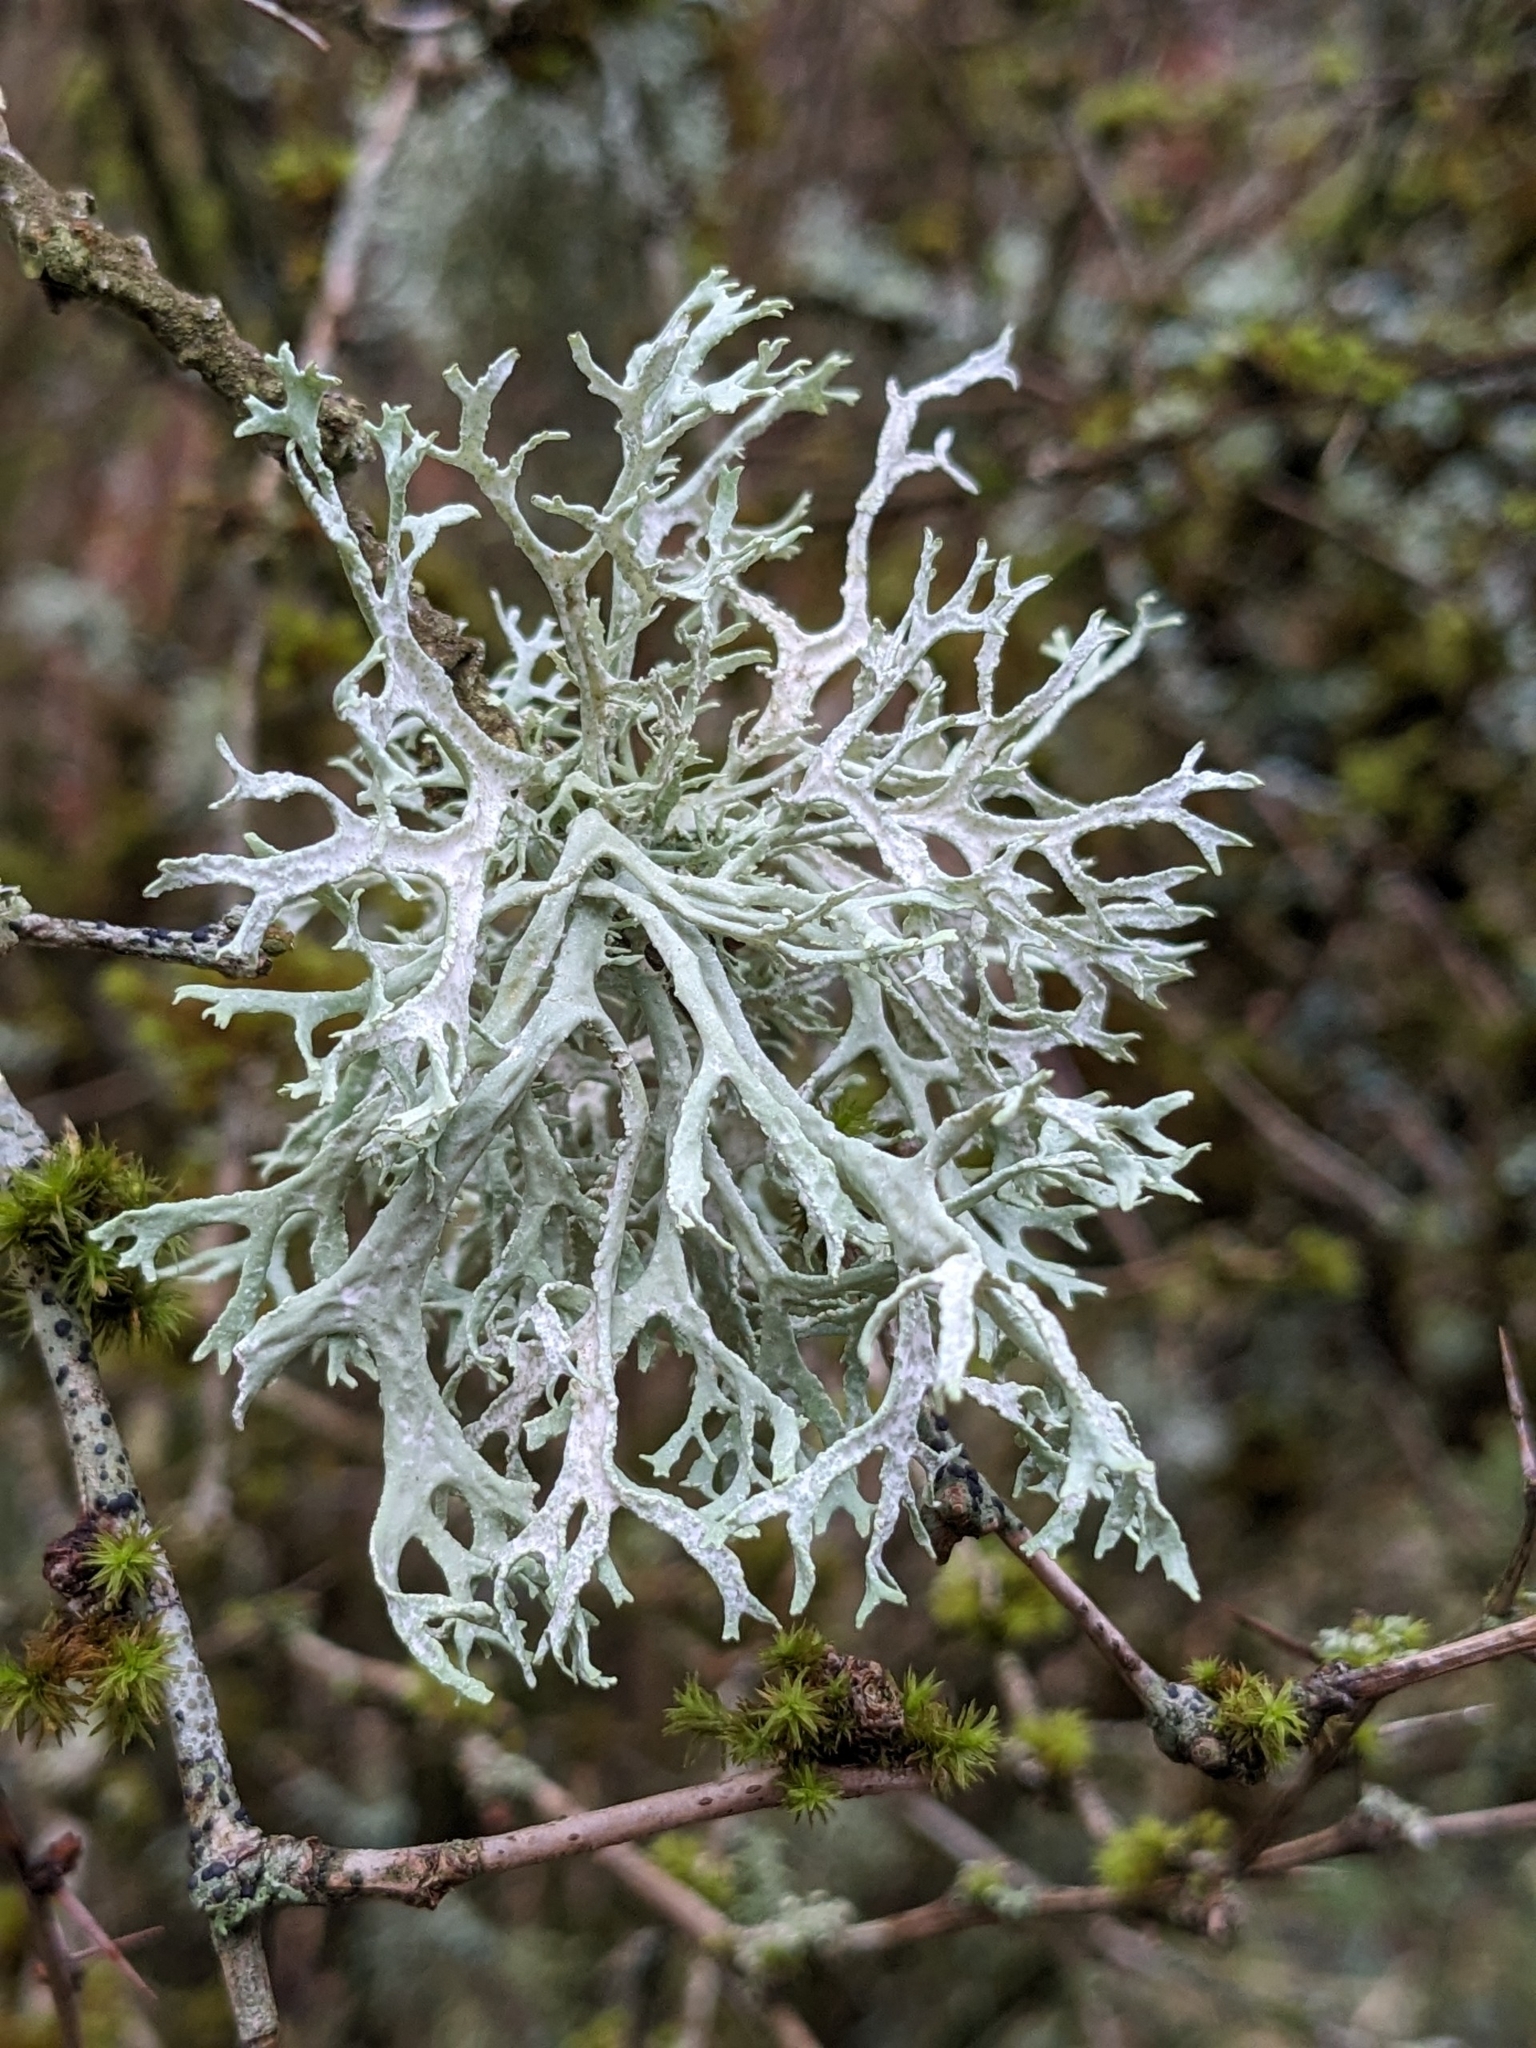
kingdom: Fungi
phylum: Ascomycota
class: Lecanoromycetes
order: Lecanorales
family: Parmeliaceae
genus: Evernia
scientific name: Evernia prunastri
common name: Oak moss
